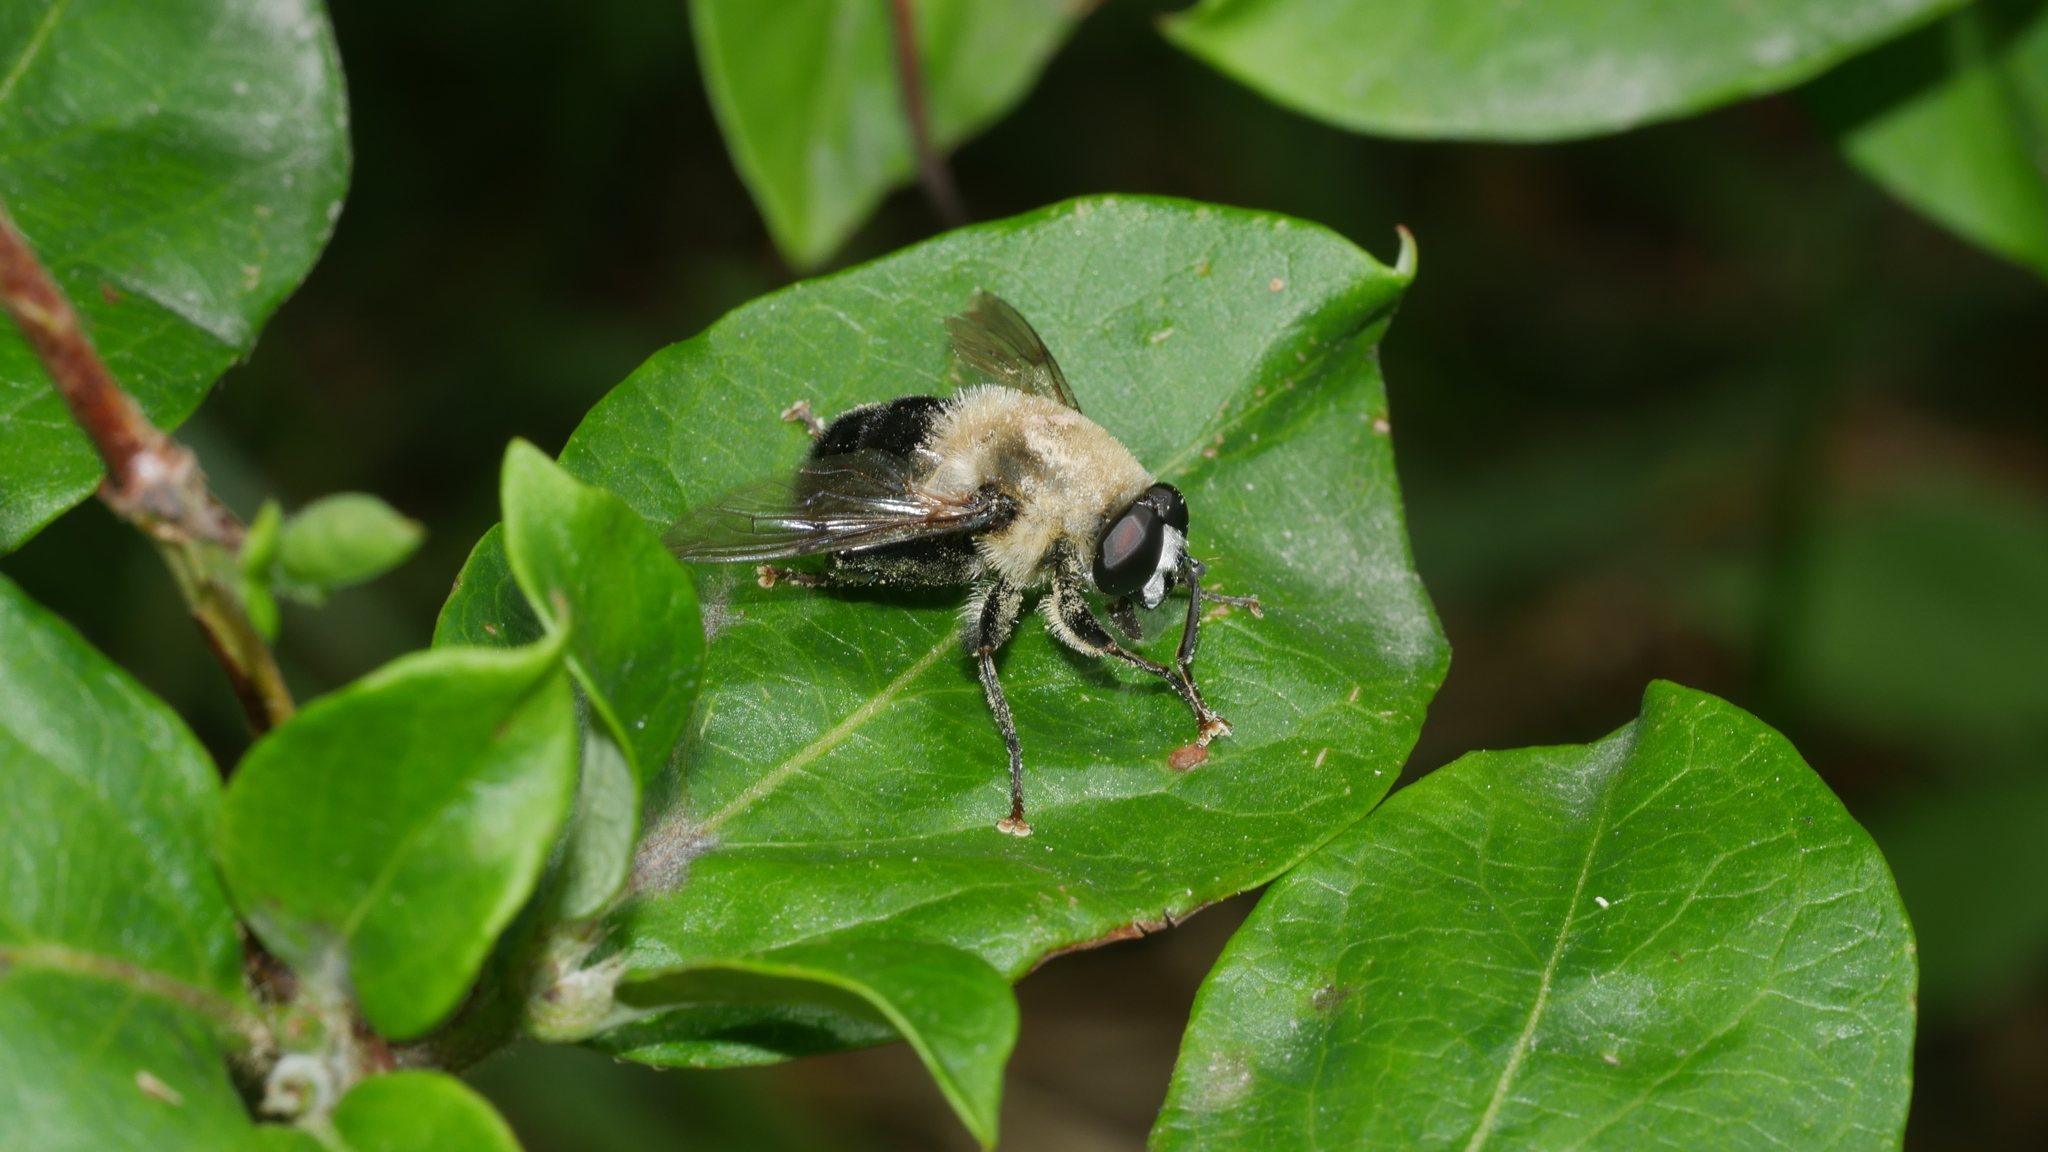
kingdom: Animalia
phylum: Arthropoda
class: Insecta
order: Diptera
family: Syrphidae
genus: Imatisma
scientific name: Imatisma bautias
